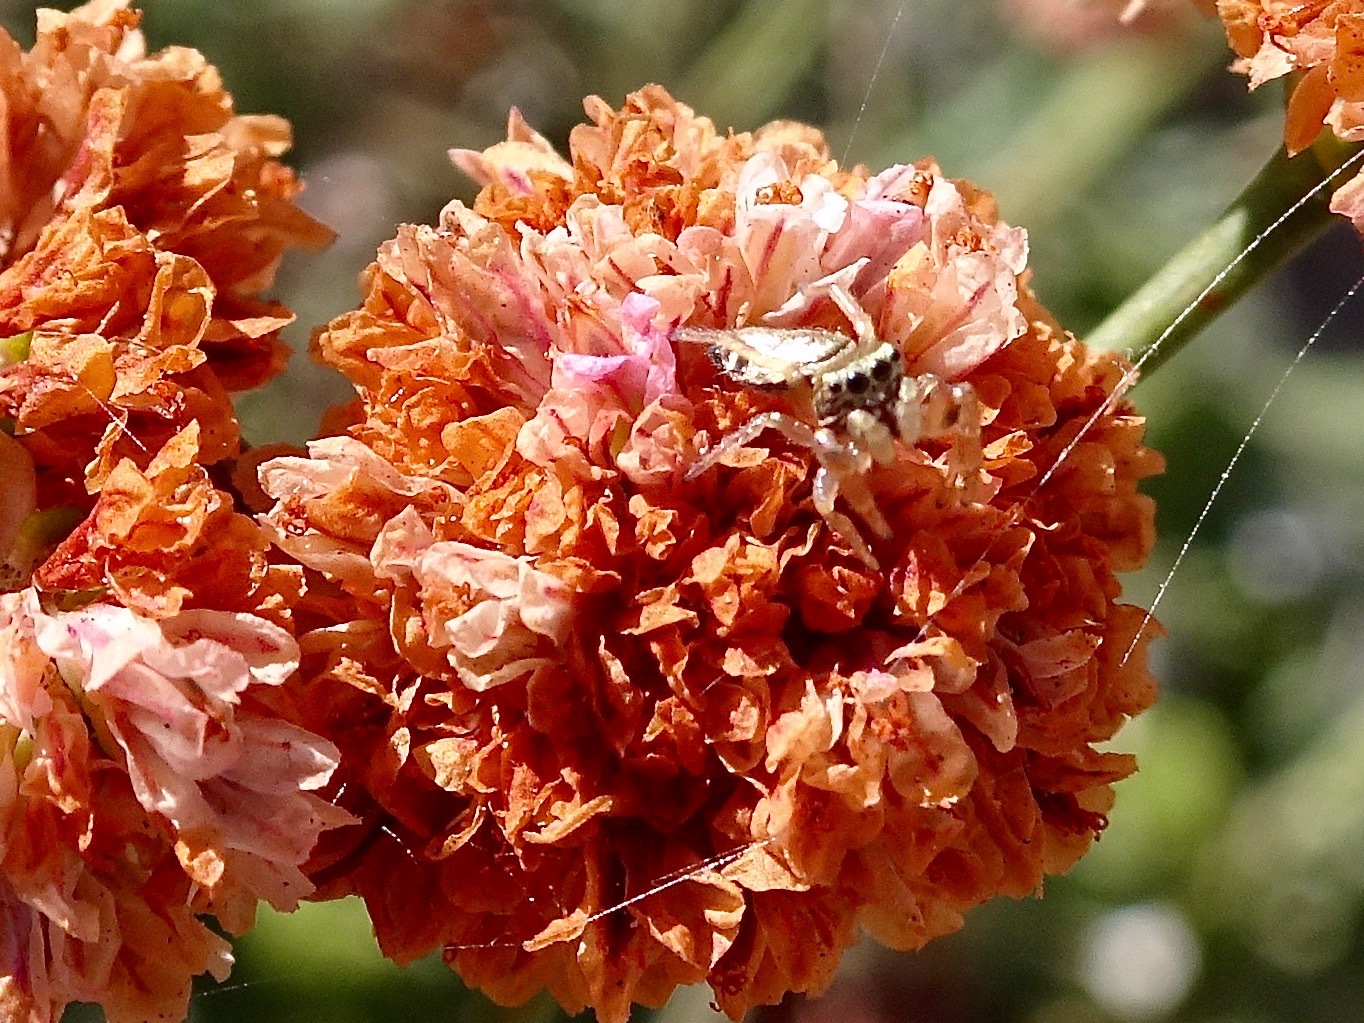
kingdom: Animalia
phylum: Arthropoda
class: Arachnida
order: Araneae
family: Salticidae
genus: Sassacus
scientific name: Sassacus vitis
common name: Jumping spiders
